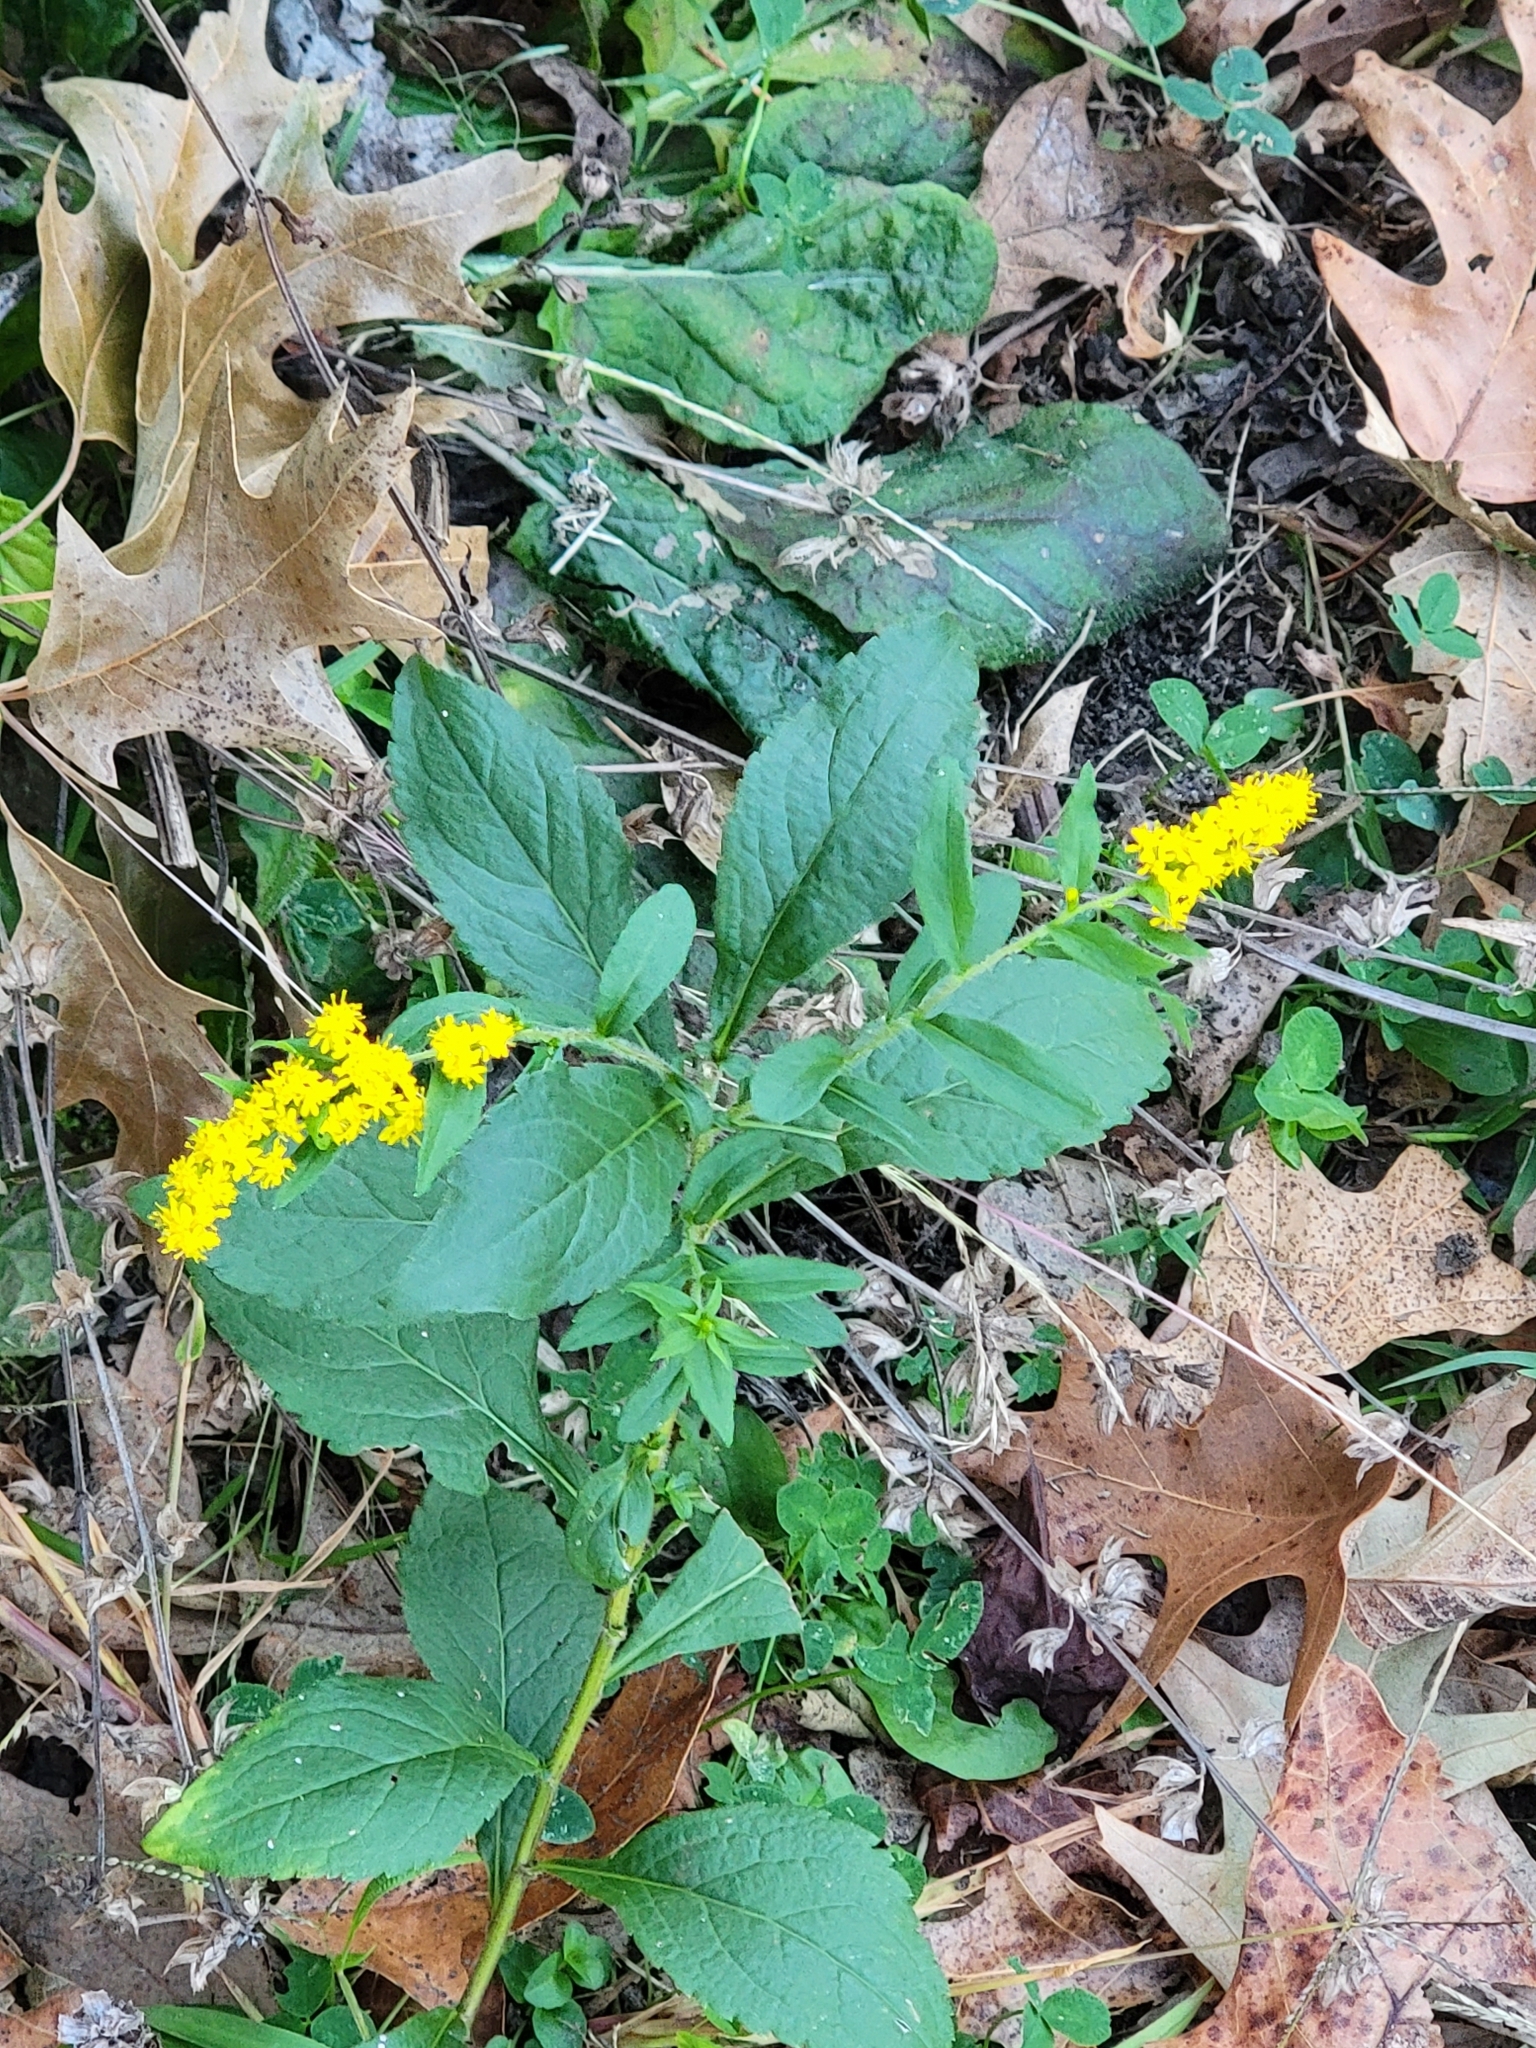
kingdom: Plantae
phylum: Tracheophyta
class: Magnoliopsida
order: Asterales
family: Asteraceae
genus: Solidago
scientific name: Solidago rugosa
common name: Rough-stemmed goldenrod
